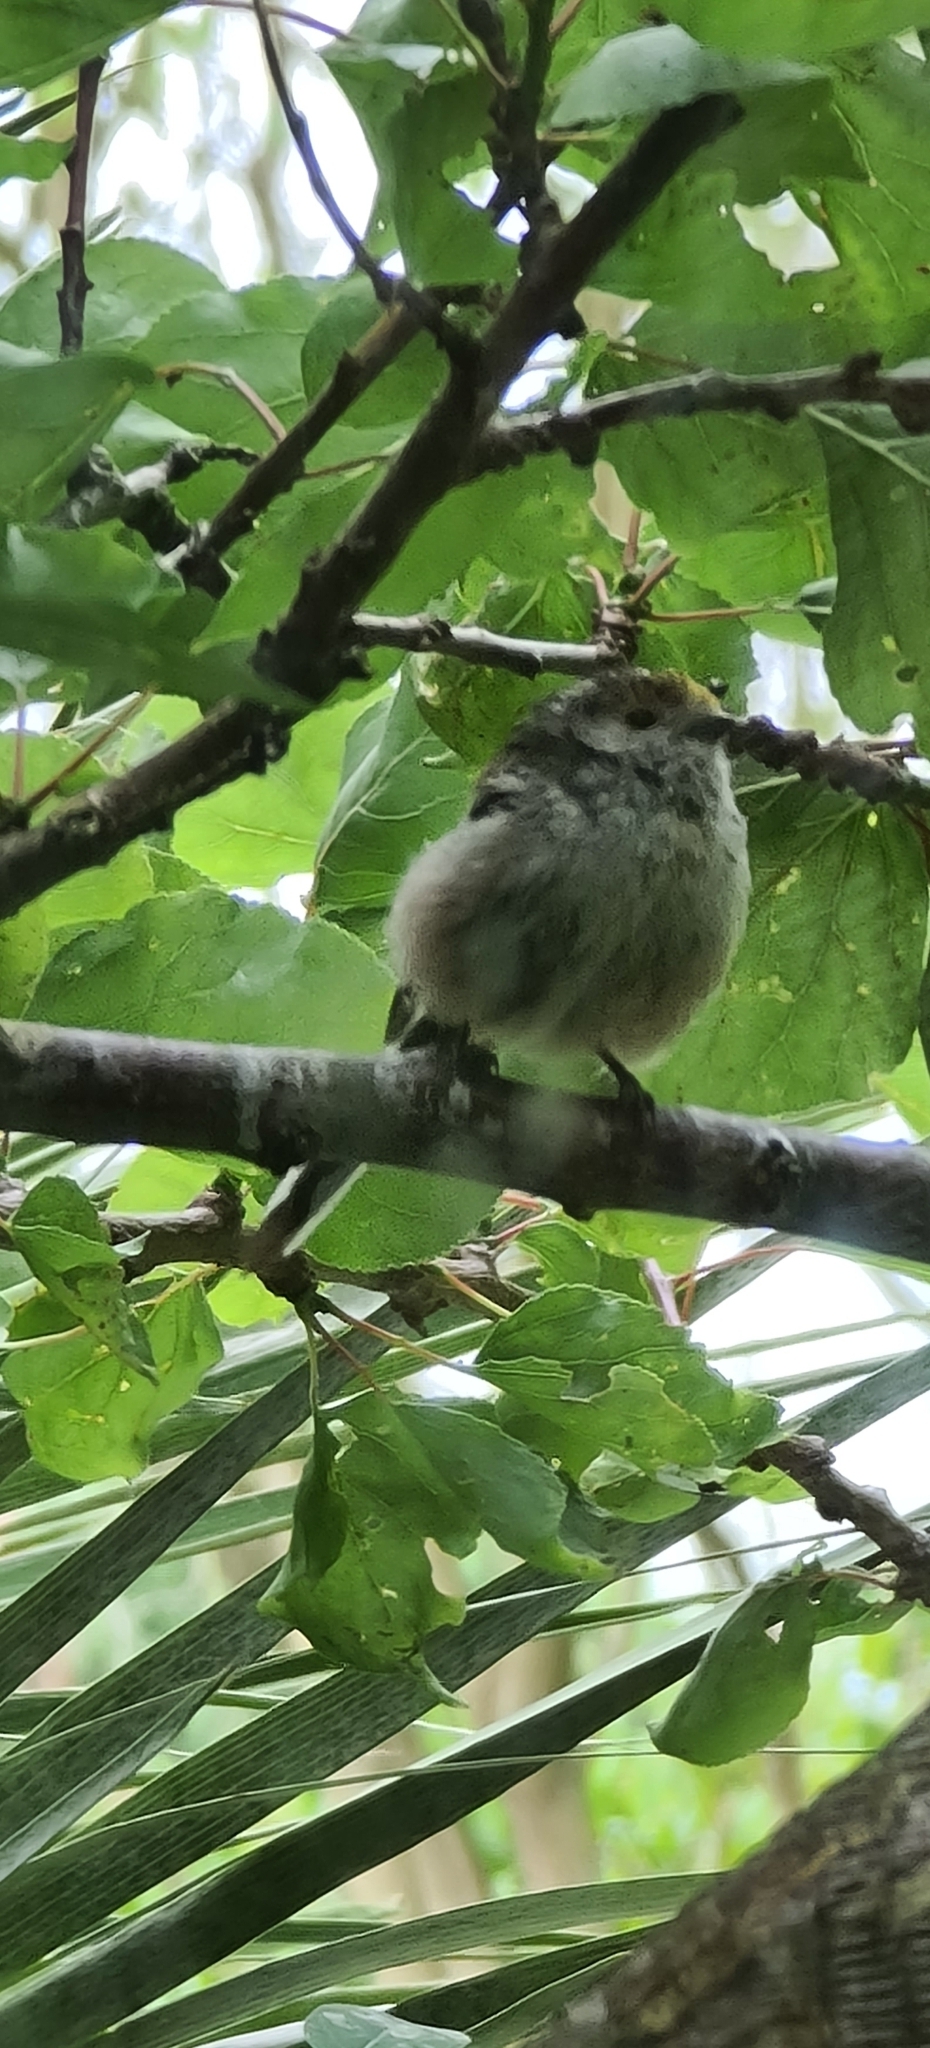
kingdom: Animalia
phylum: Chordata
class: Aves
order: Passeriformes
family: Aegithalidae
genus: Aegithalos
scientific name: Aegithalos caudatus
